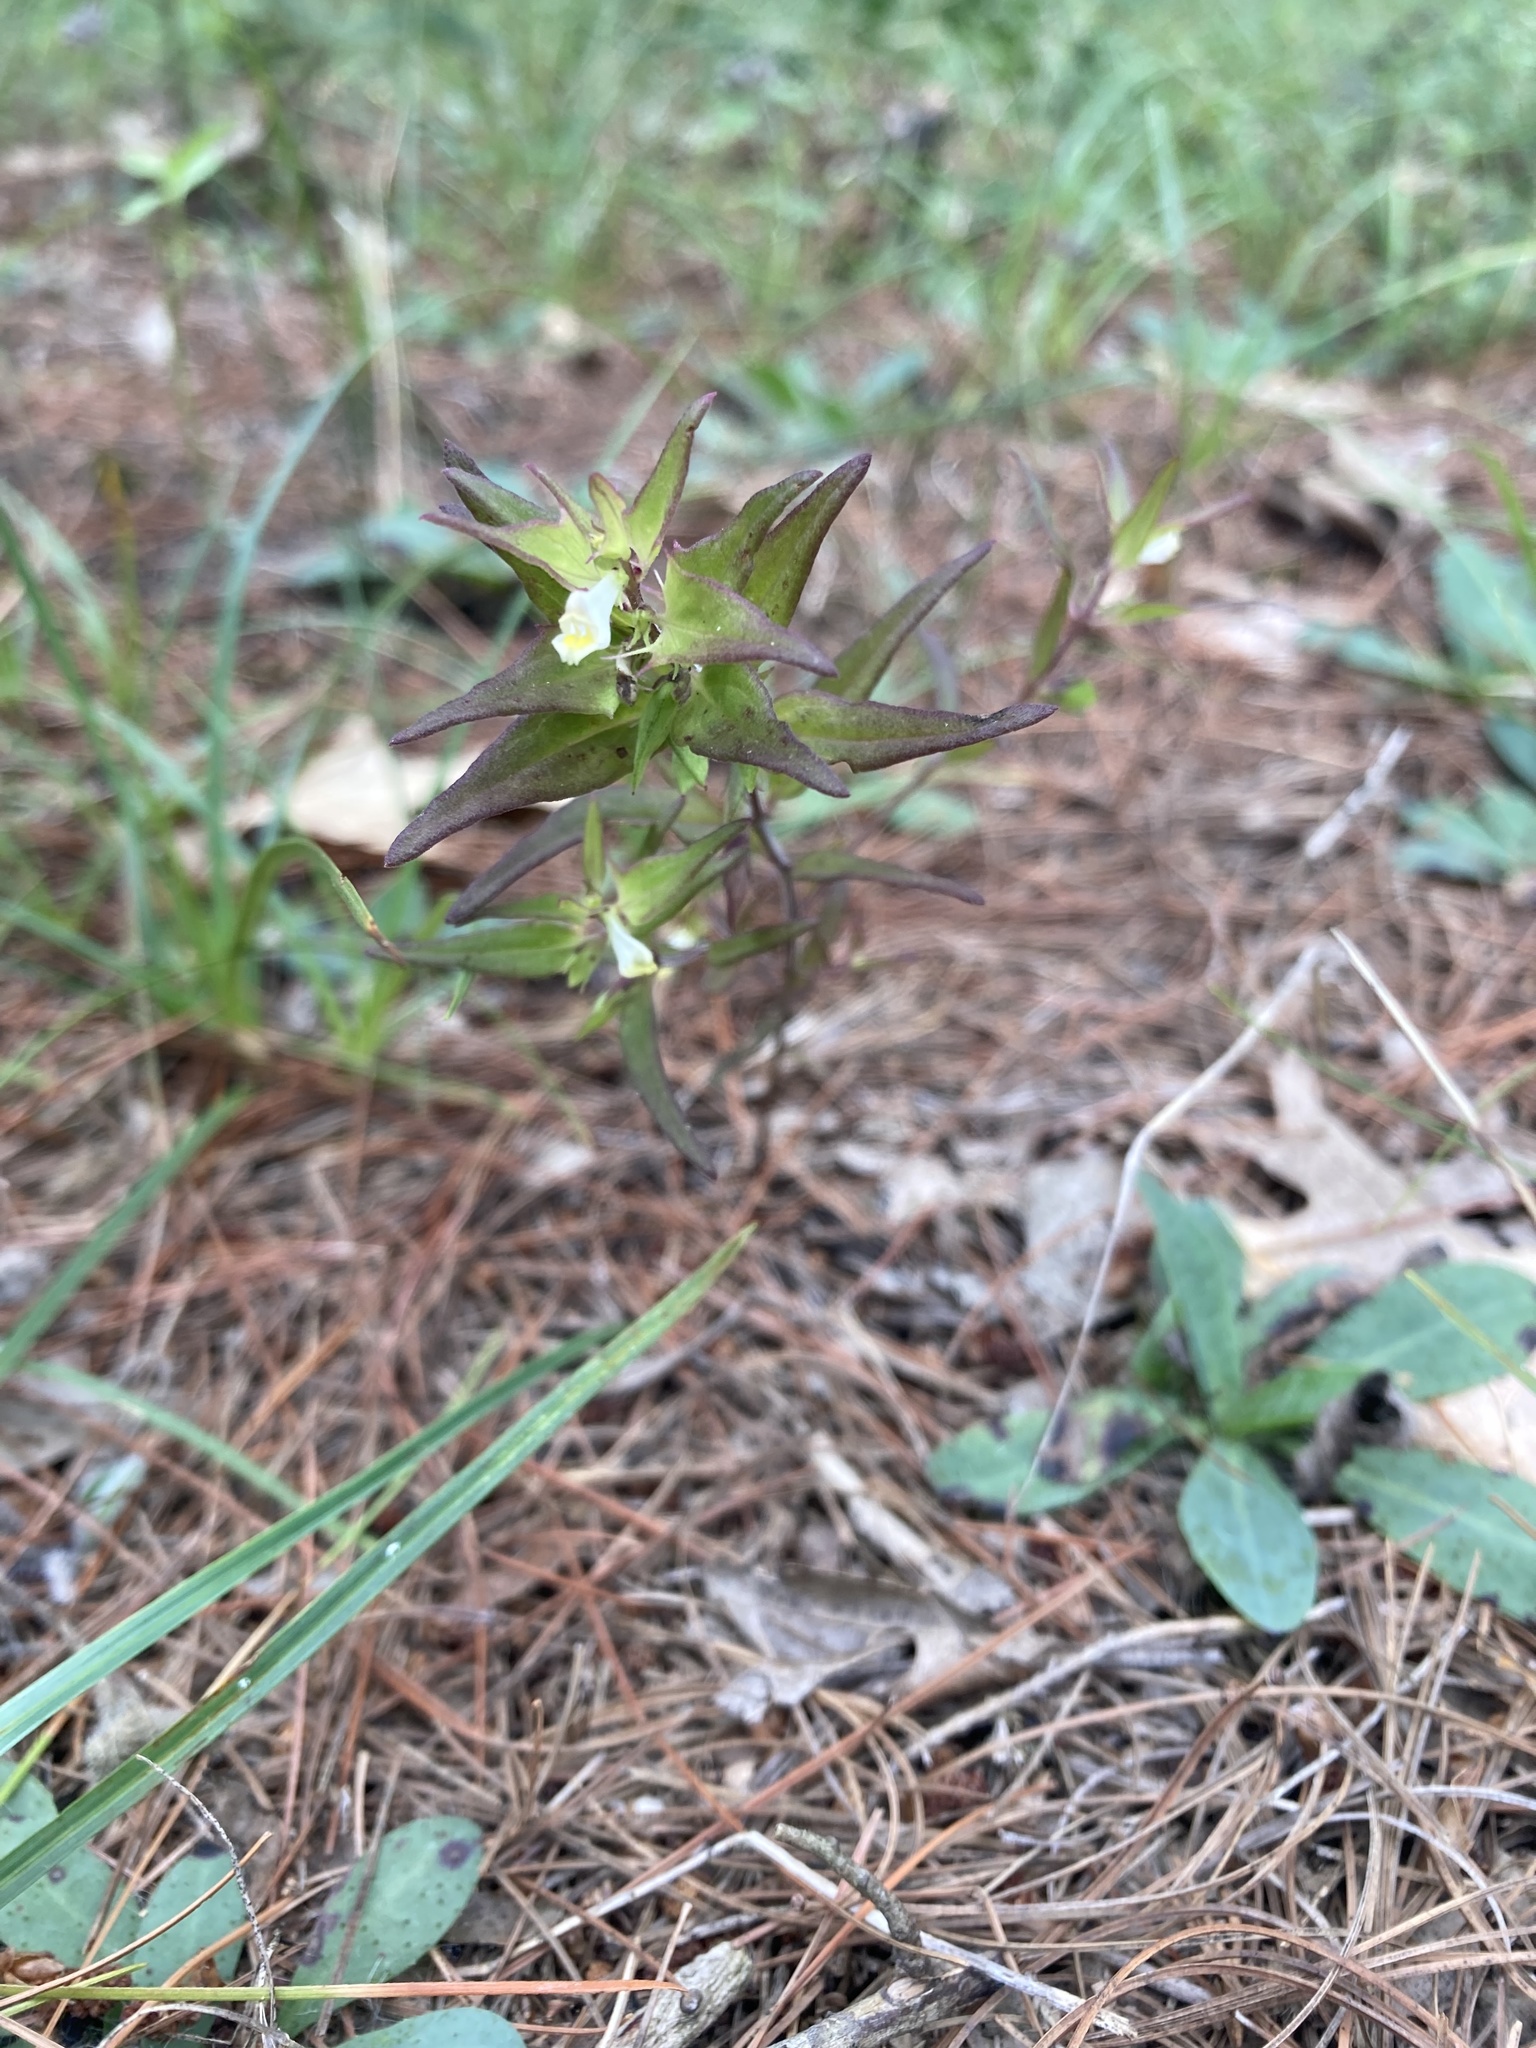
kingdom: Plantae
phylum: Tracheophyta
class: Magnoliopsida
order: Lamiales
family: Orobanchaceae
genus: Melampyrum
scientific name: Melampyrum lineare
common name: American cow-wheat
